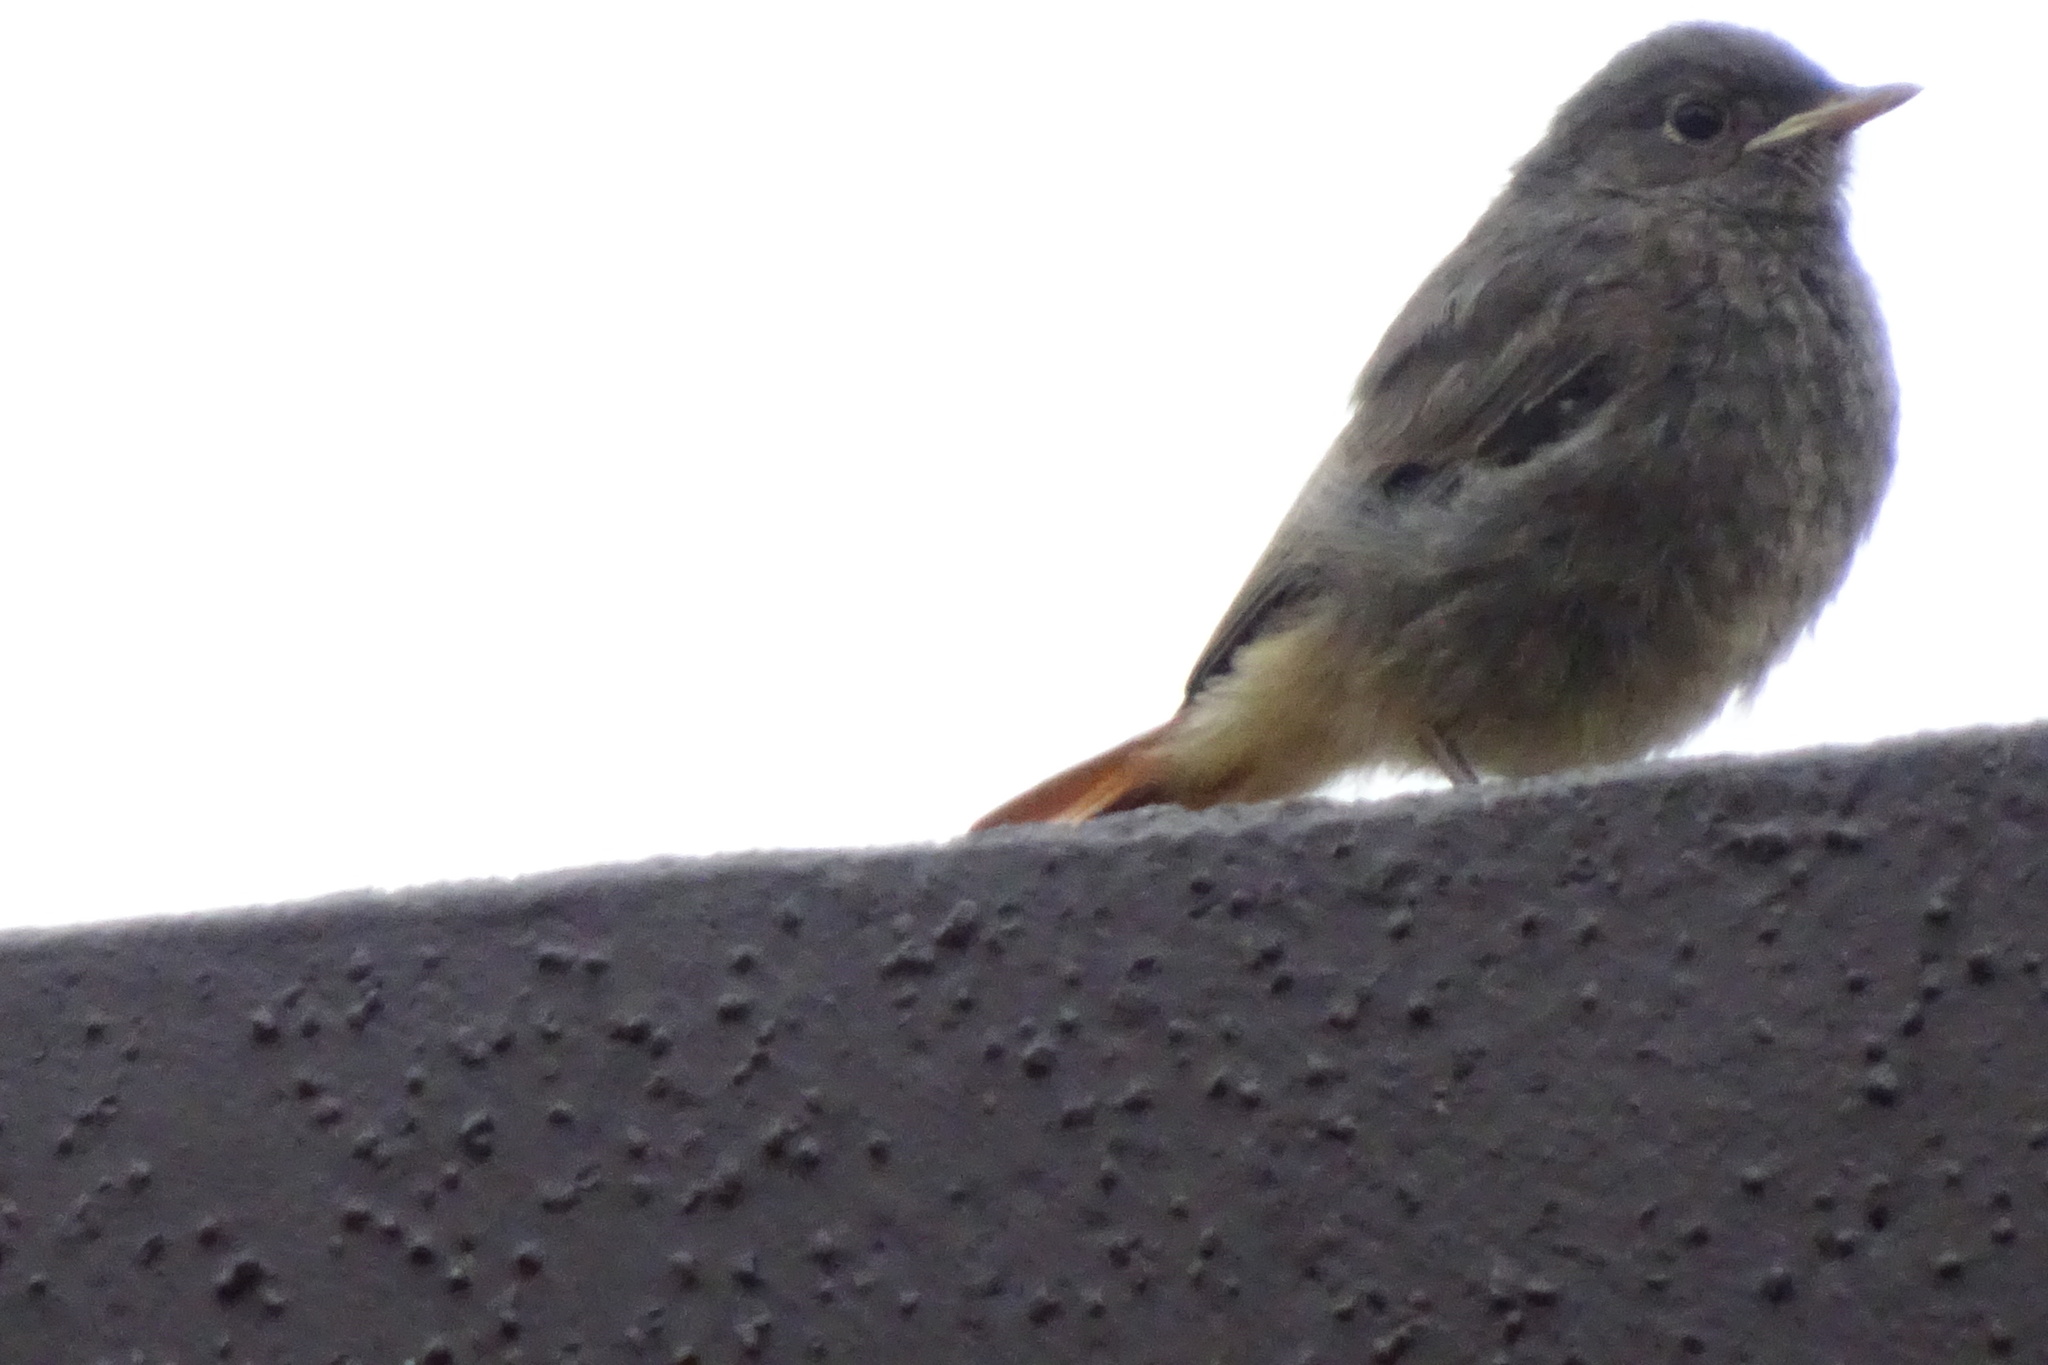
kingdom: Animalia
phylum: Chordata
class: Aves
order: Passeriformes
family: Muscicapidae
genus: Phoenicurus
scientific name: Phoenicurus ochruros
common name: Black redstart
